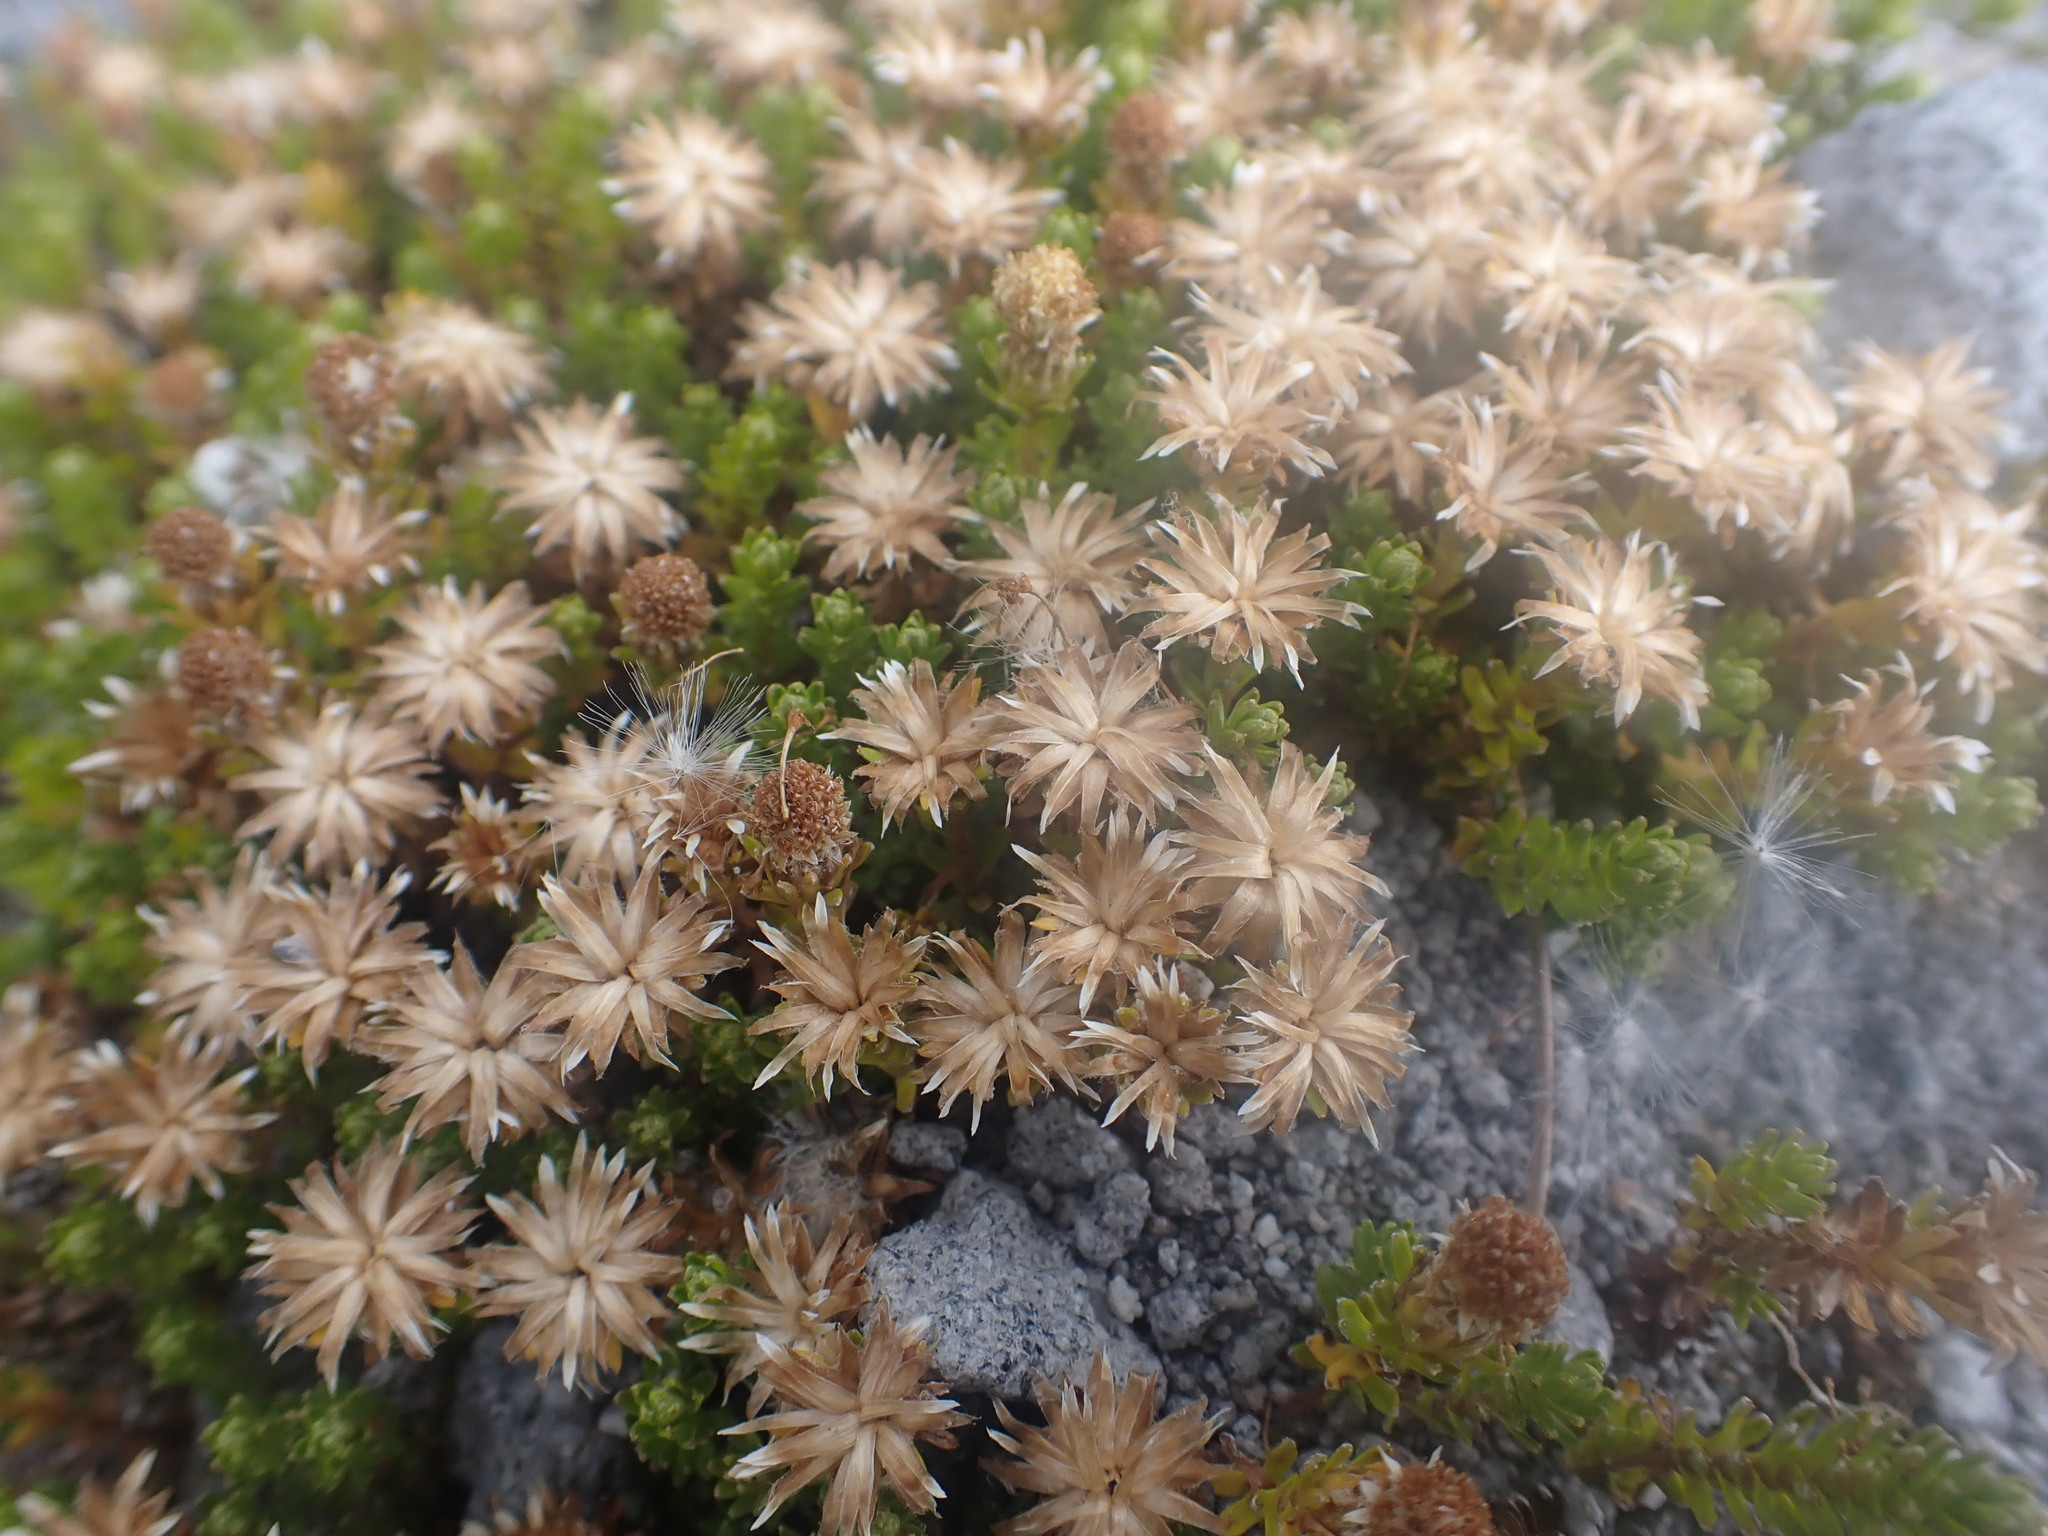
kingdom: Plantae
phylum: Tracheophyta
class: Magnoliopsida
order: Asterales
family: Asteraceae
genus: Raoulia
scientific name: Raoulia glabra
